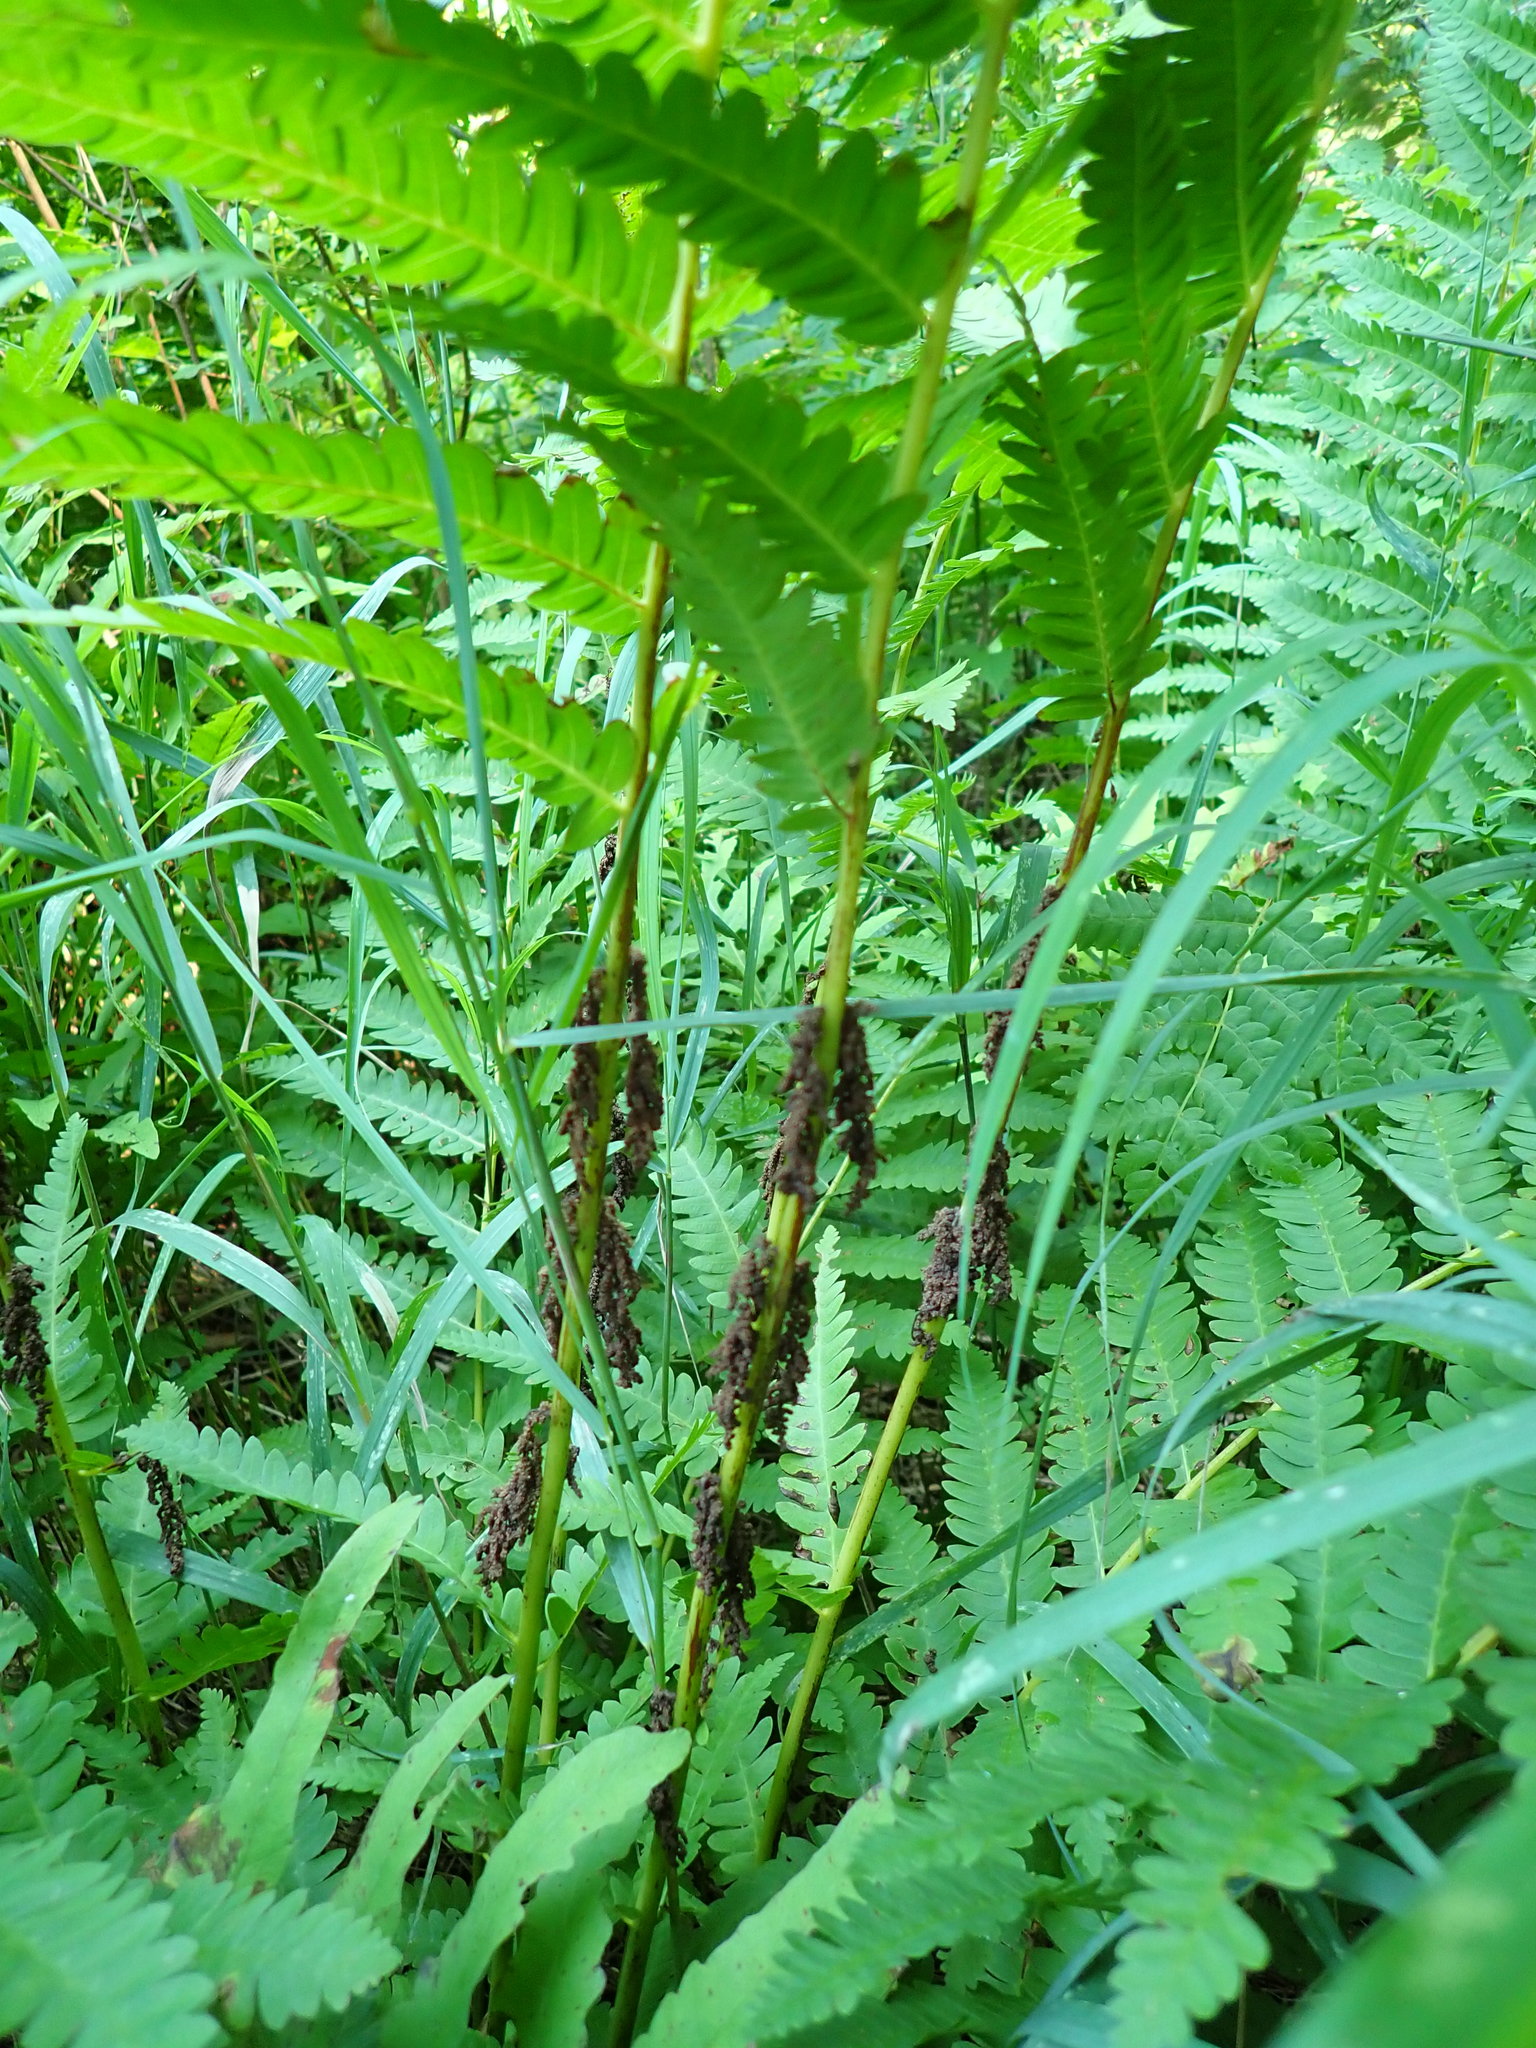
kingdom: Plantae
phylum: Tracheophyta
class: Polypodiopsida
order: Osmundales
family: Osmundaceae
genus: Claytosmunda
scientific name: Claytosmunda claytoniana
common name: Clayton's fern
